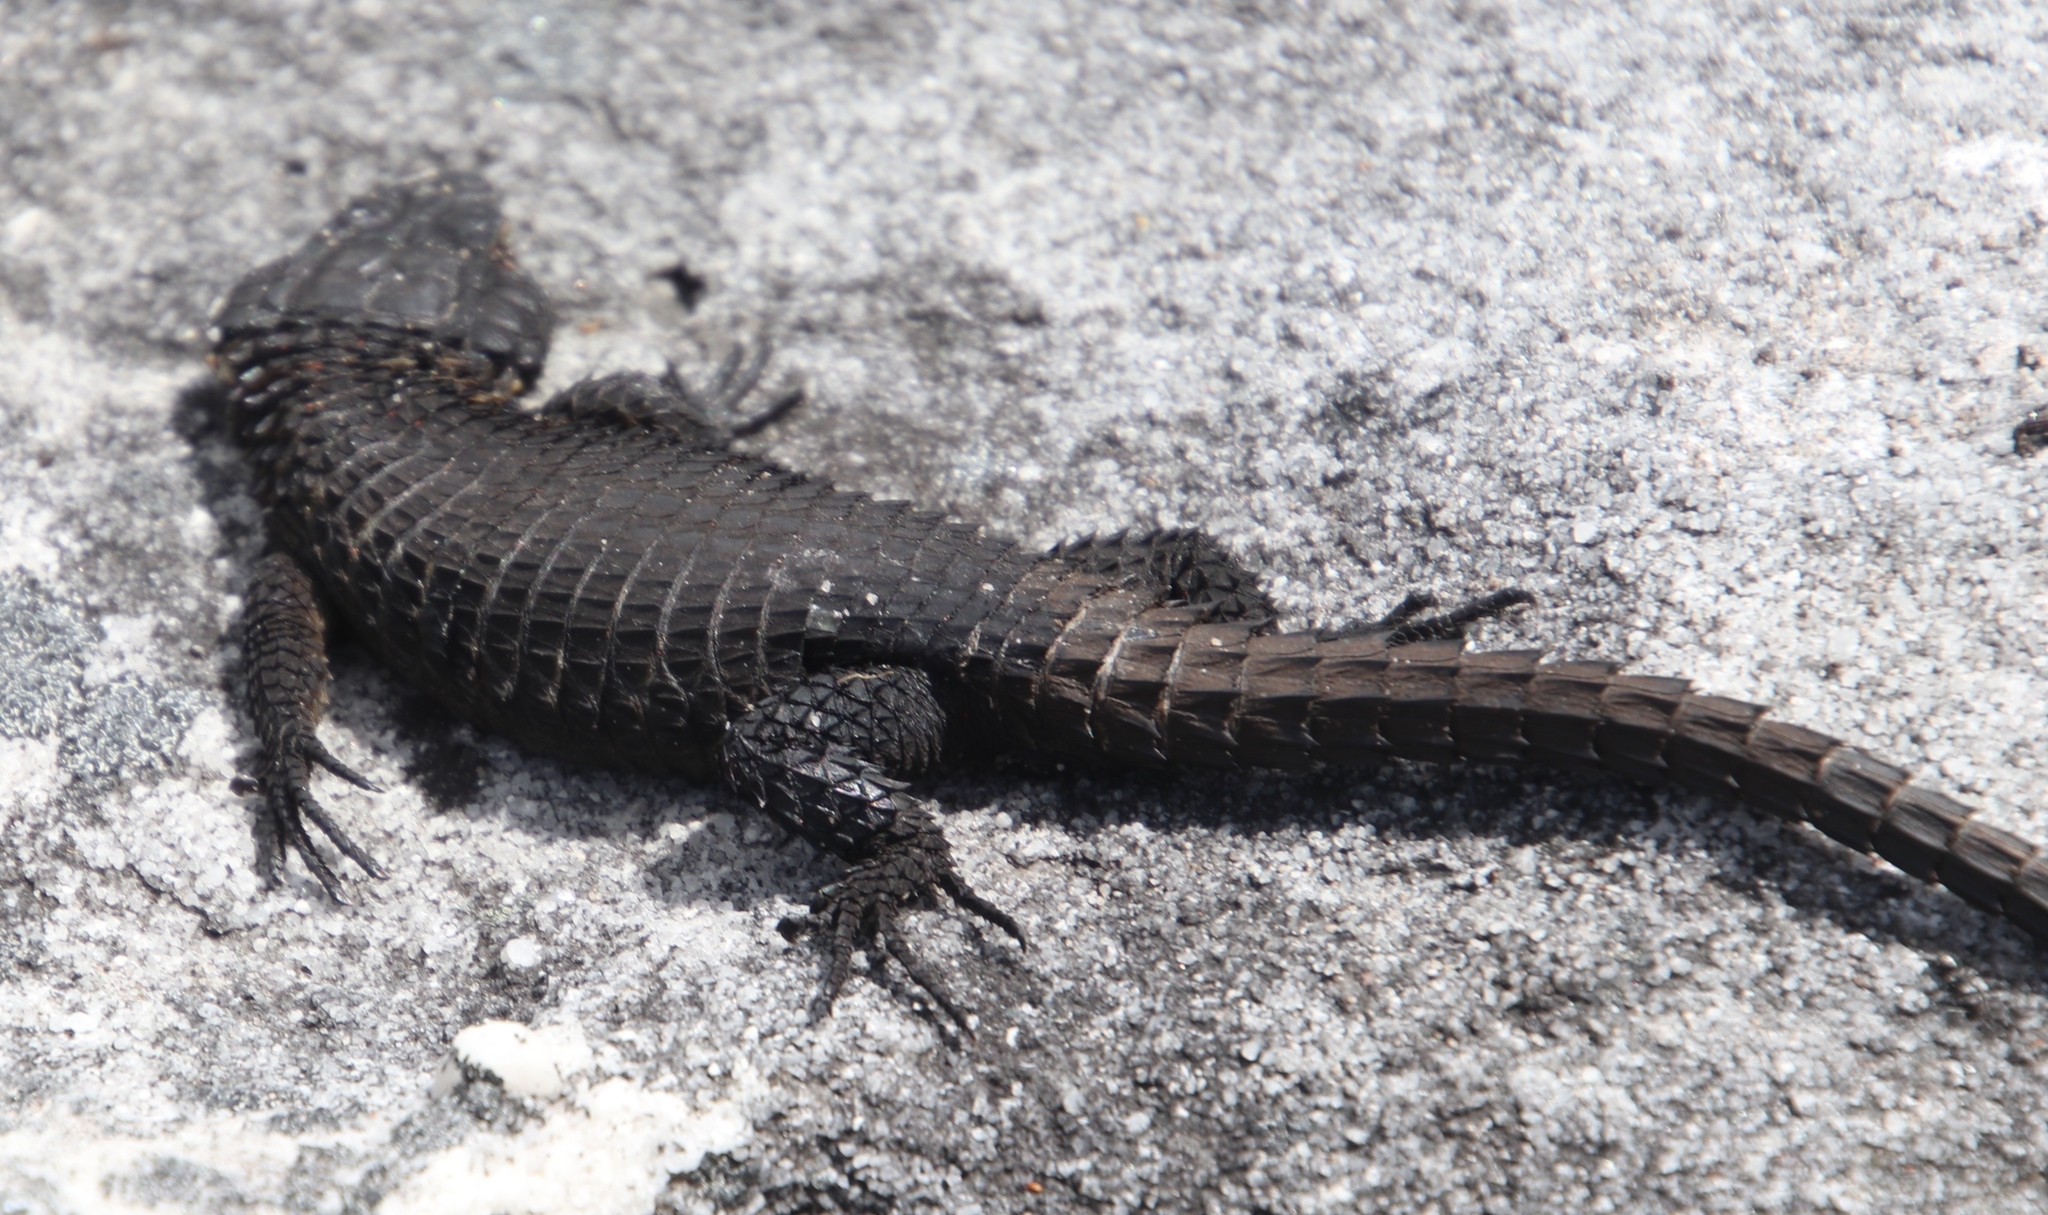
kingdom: Animalia
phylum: Chordata
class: Squamata
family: Cordylidae
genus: Cordylus
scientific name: Cordylus niger
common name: Black girdled lizard
